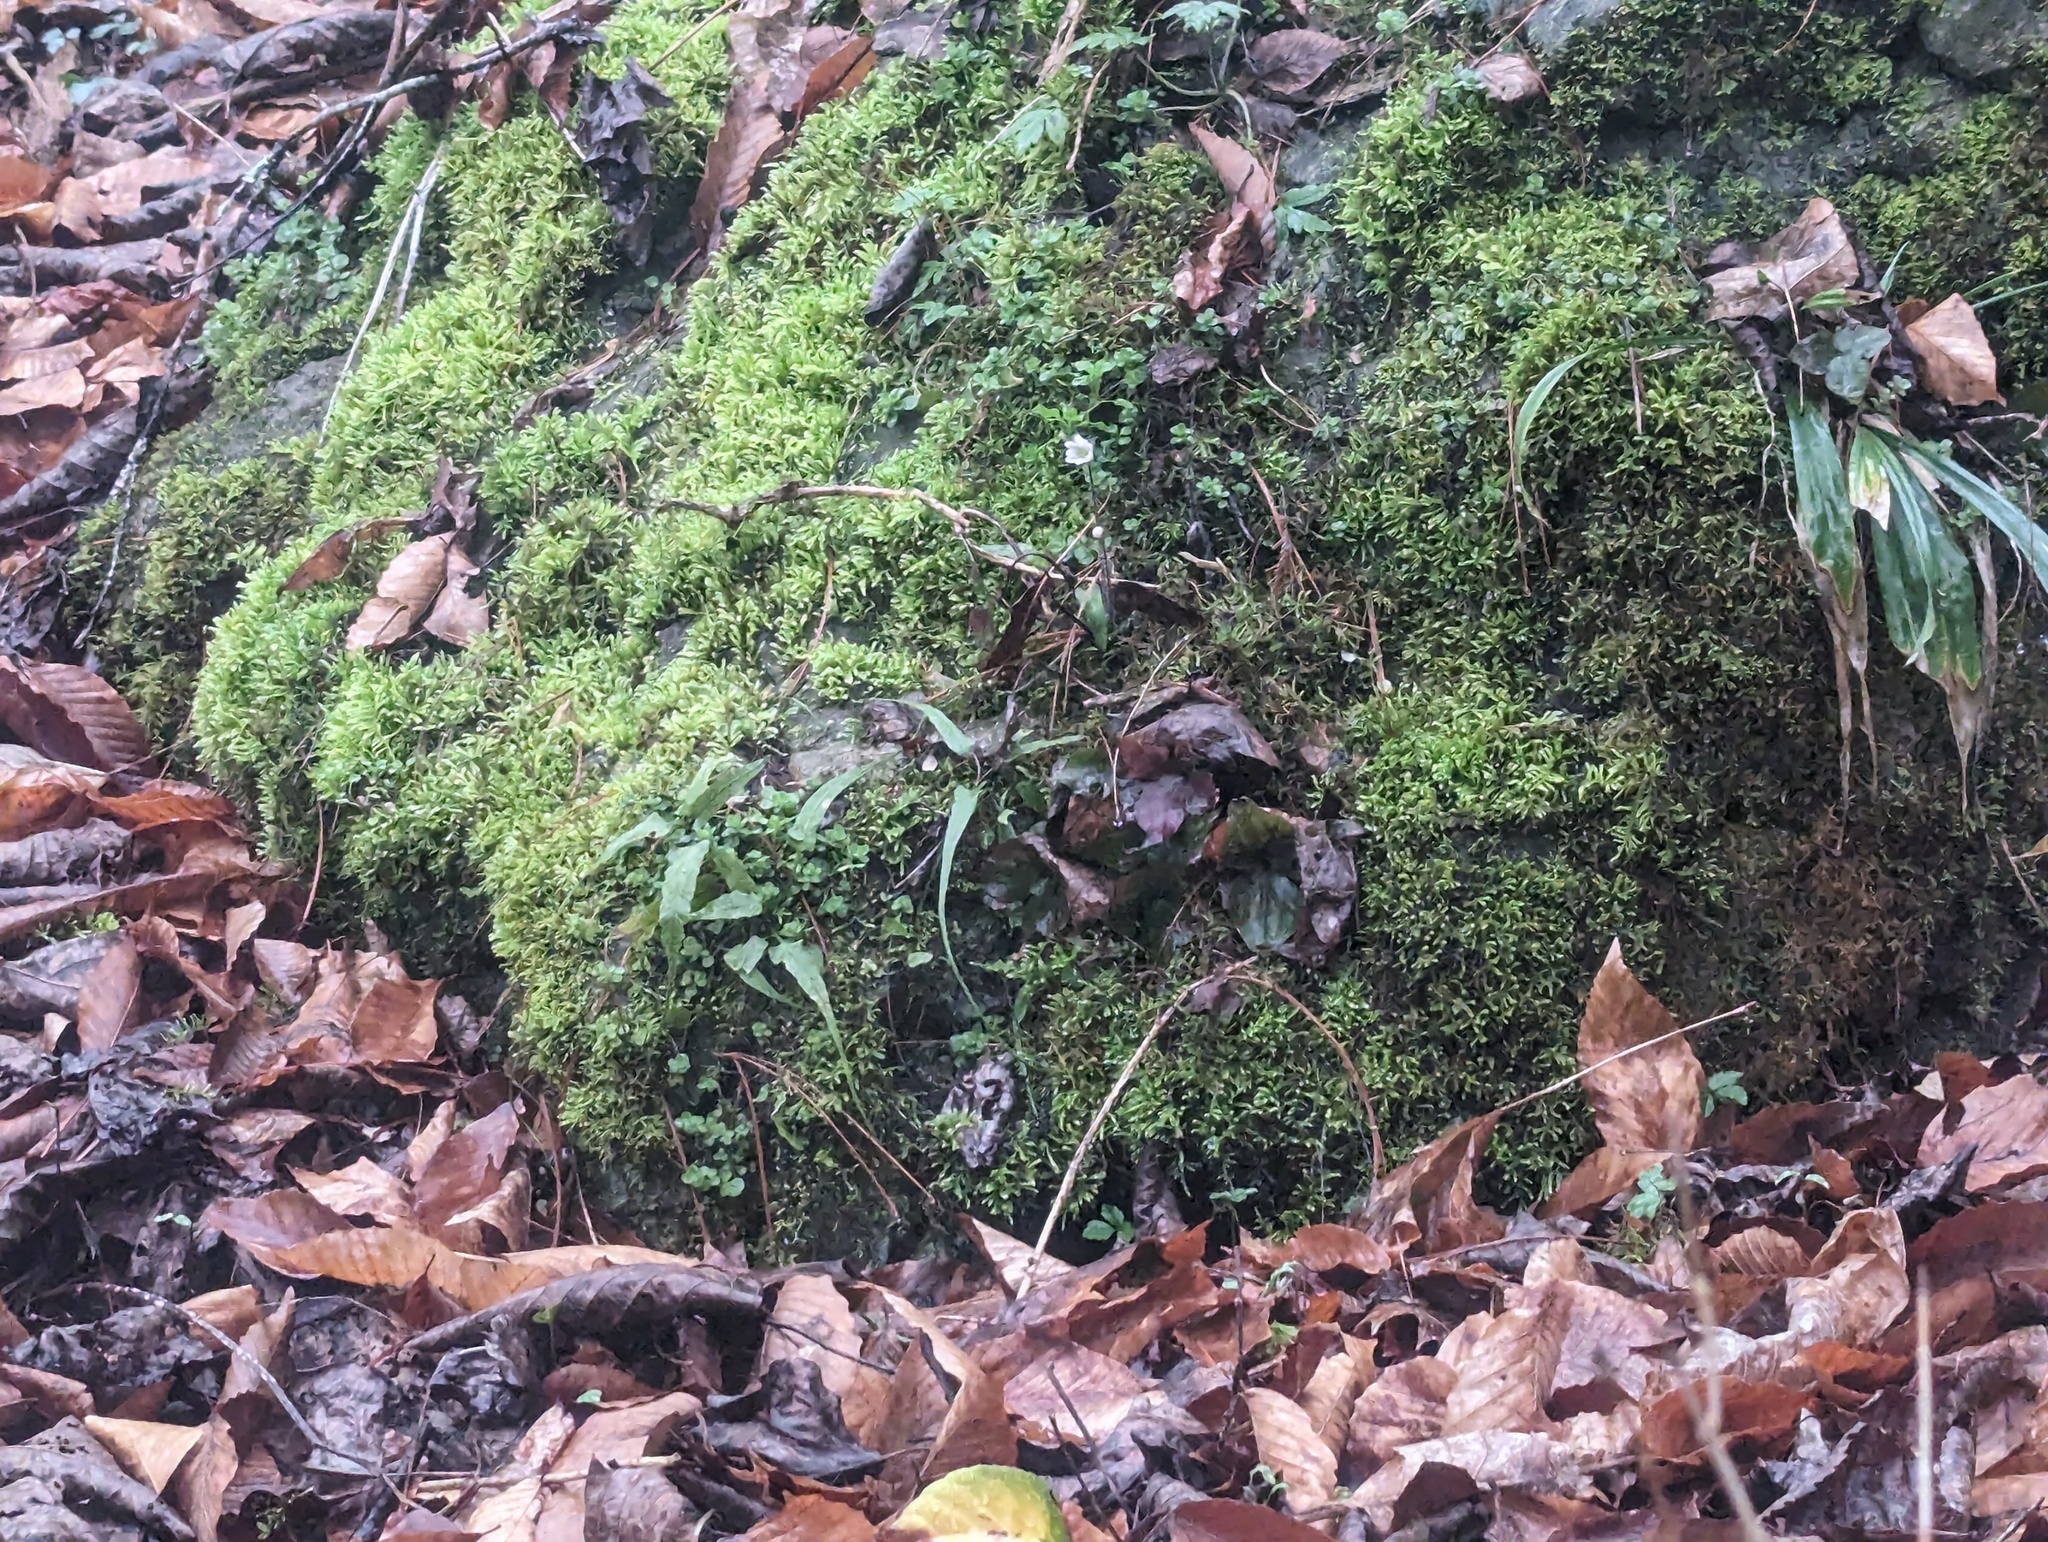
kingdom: Plantae
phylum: Tracheophyta
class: Polypodiopsida
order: Polypodiales
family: Aspleniaceae
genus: Asplenium
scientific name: Asplenium rhizophyllum
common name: Walking fern
